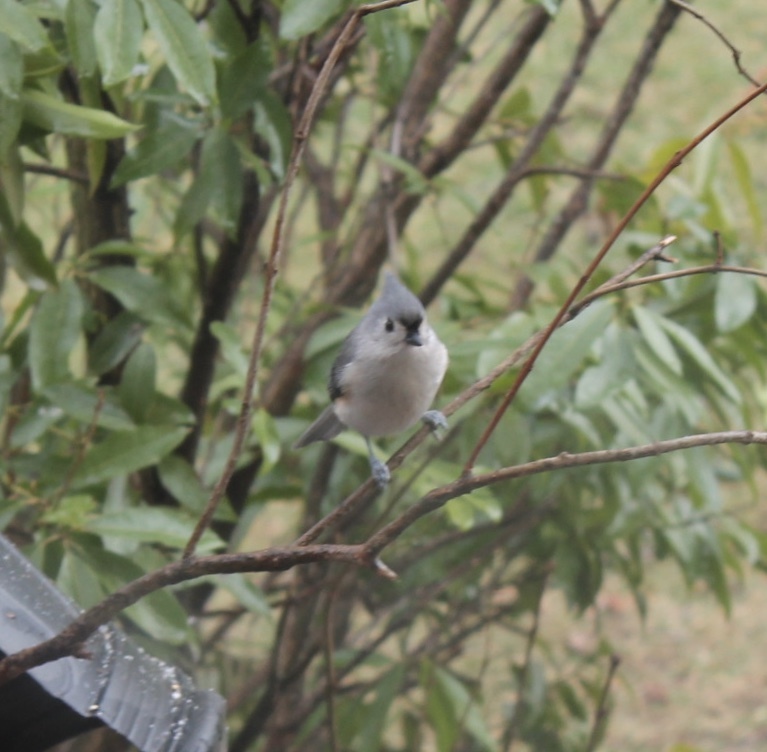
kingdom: Animalia
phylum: Chordata
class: Aves
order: Passeriformes
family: Paridae
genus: Baeolophus
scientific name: Baeolophus bicolor
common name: Tufted titmouse
